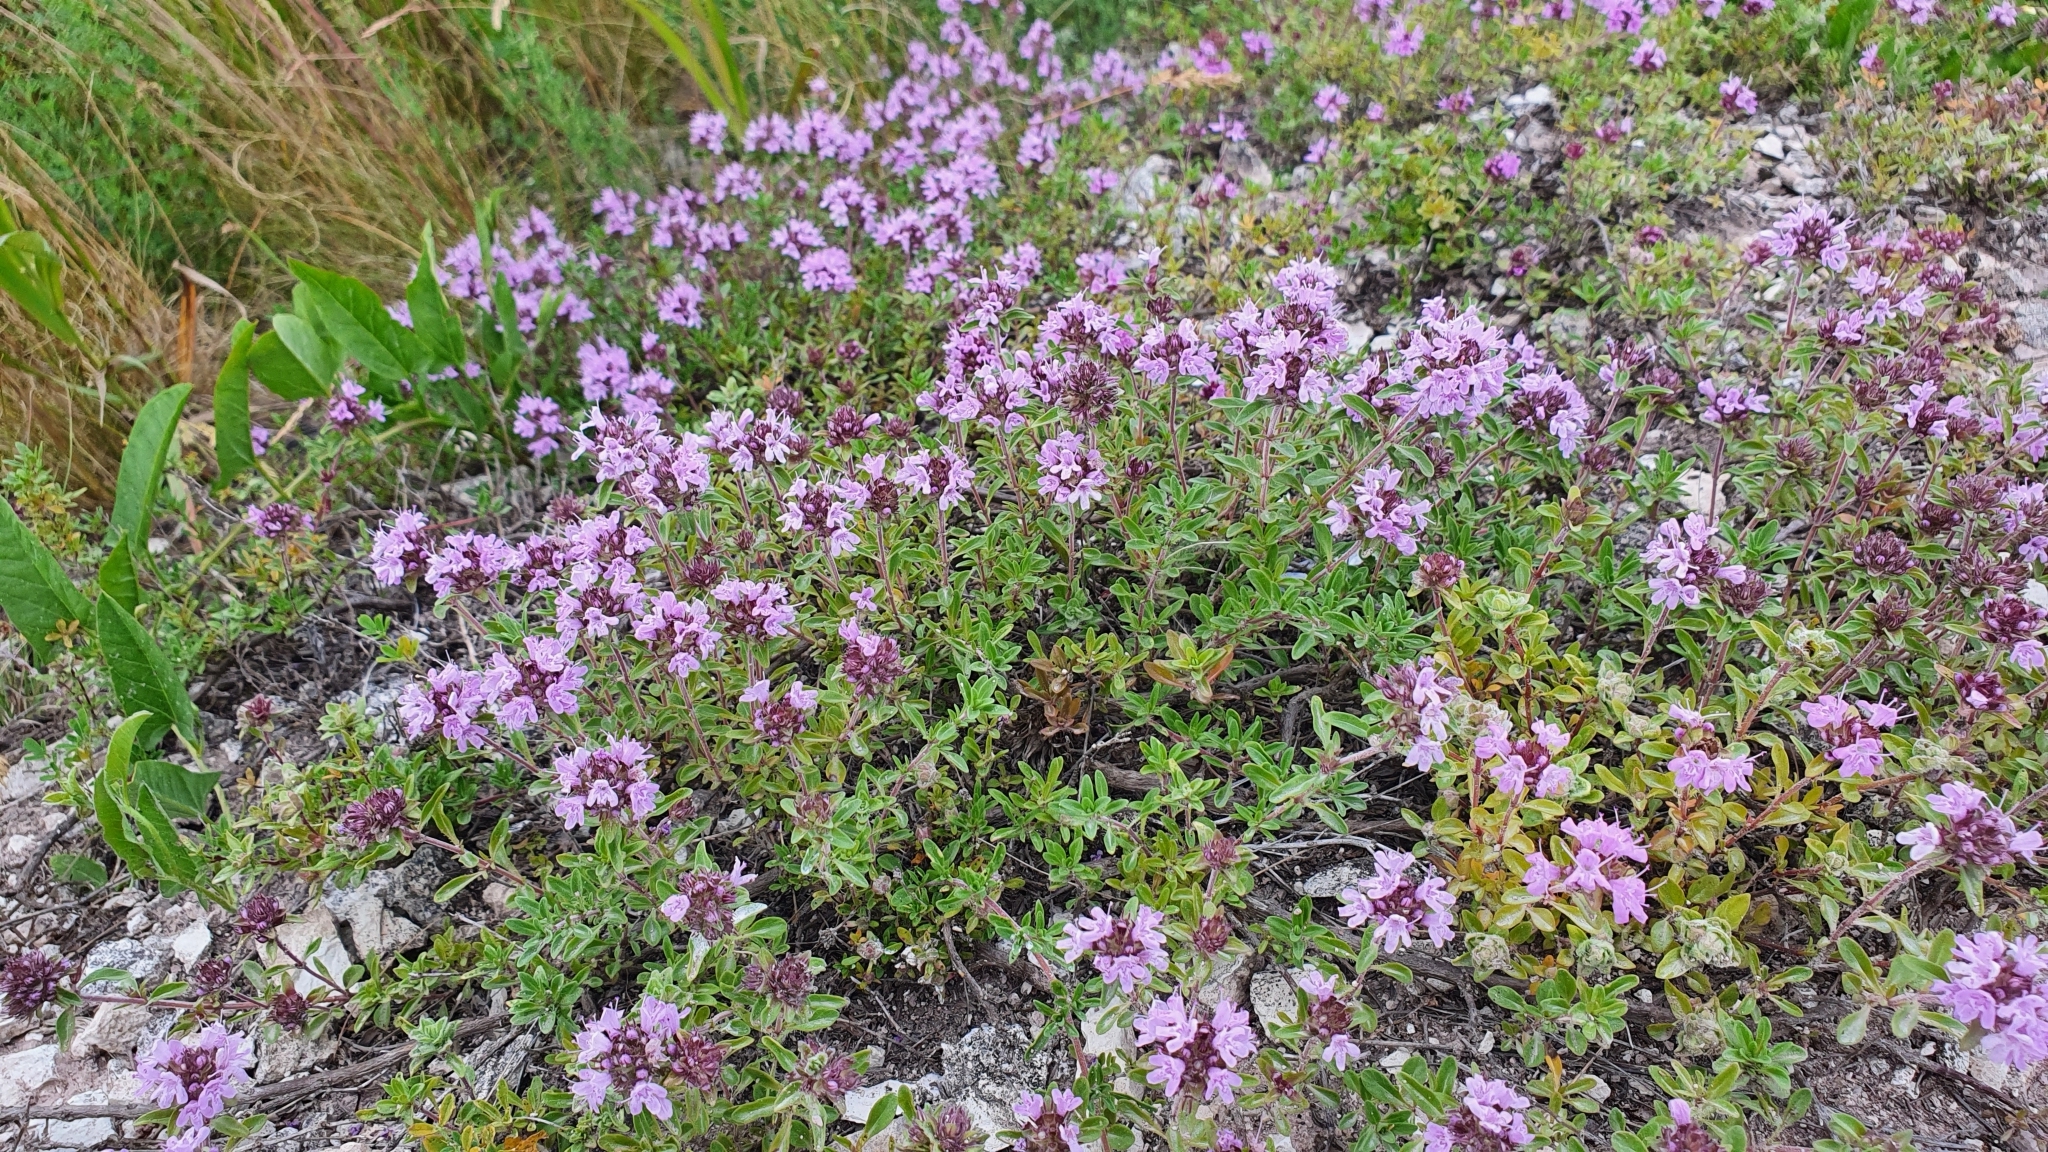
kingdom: Plantae
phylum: Tracheophyta
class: Magnoliopsida
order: Lamiales
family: Lamiaceae
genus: Thymus
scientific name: Thymus talijevii
